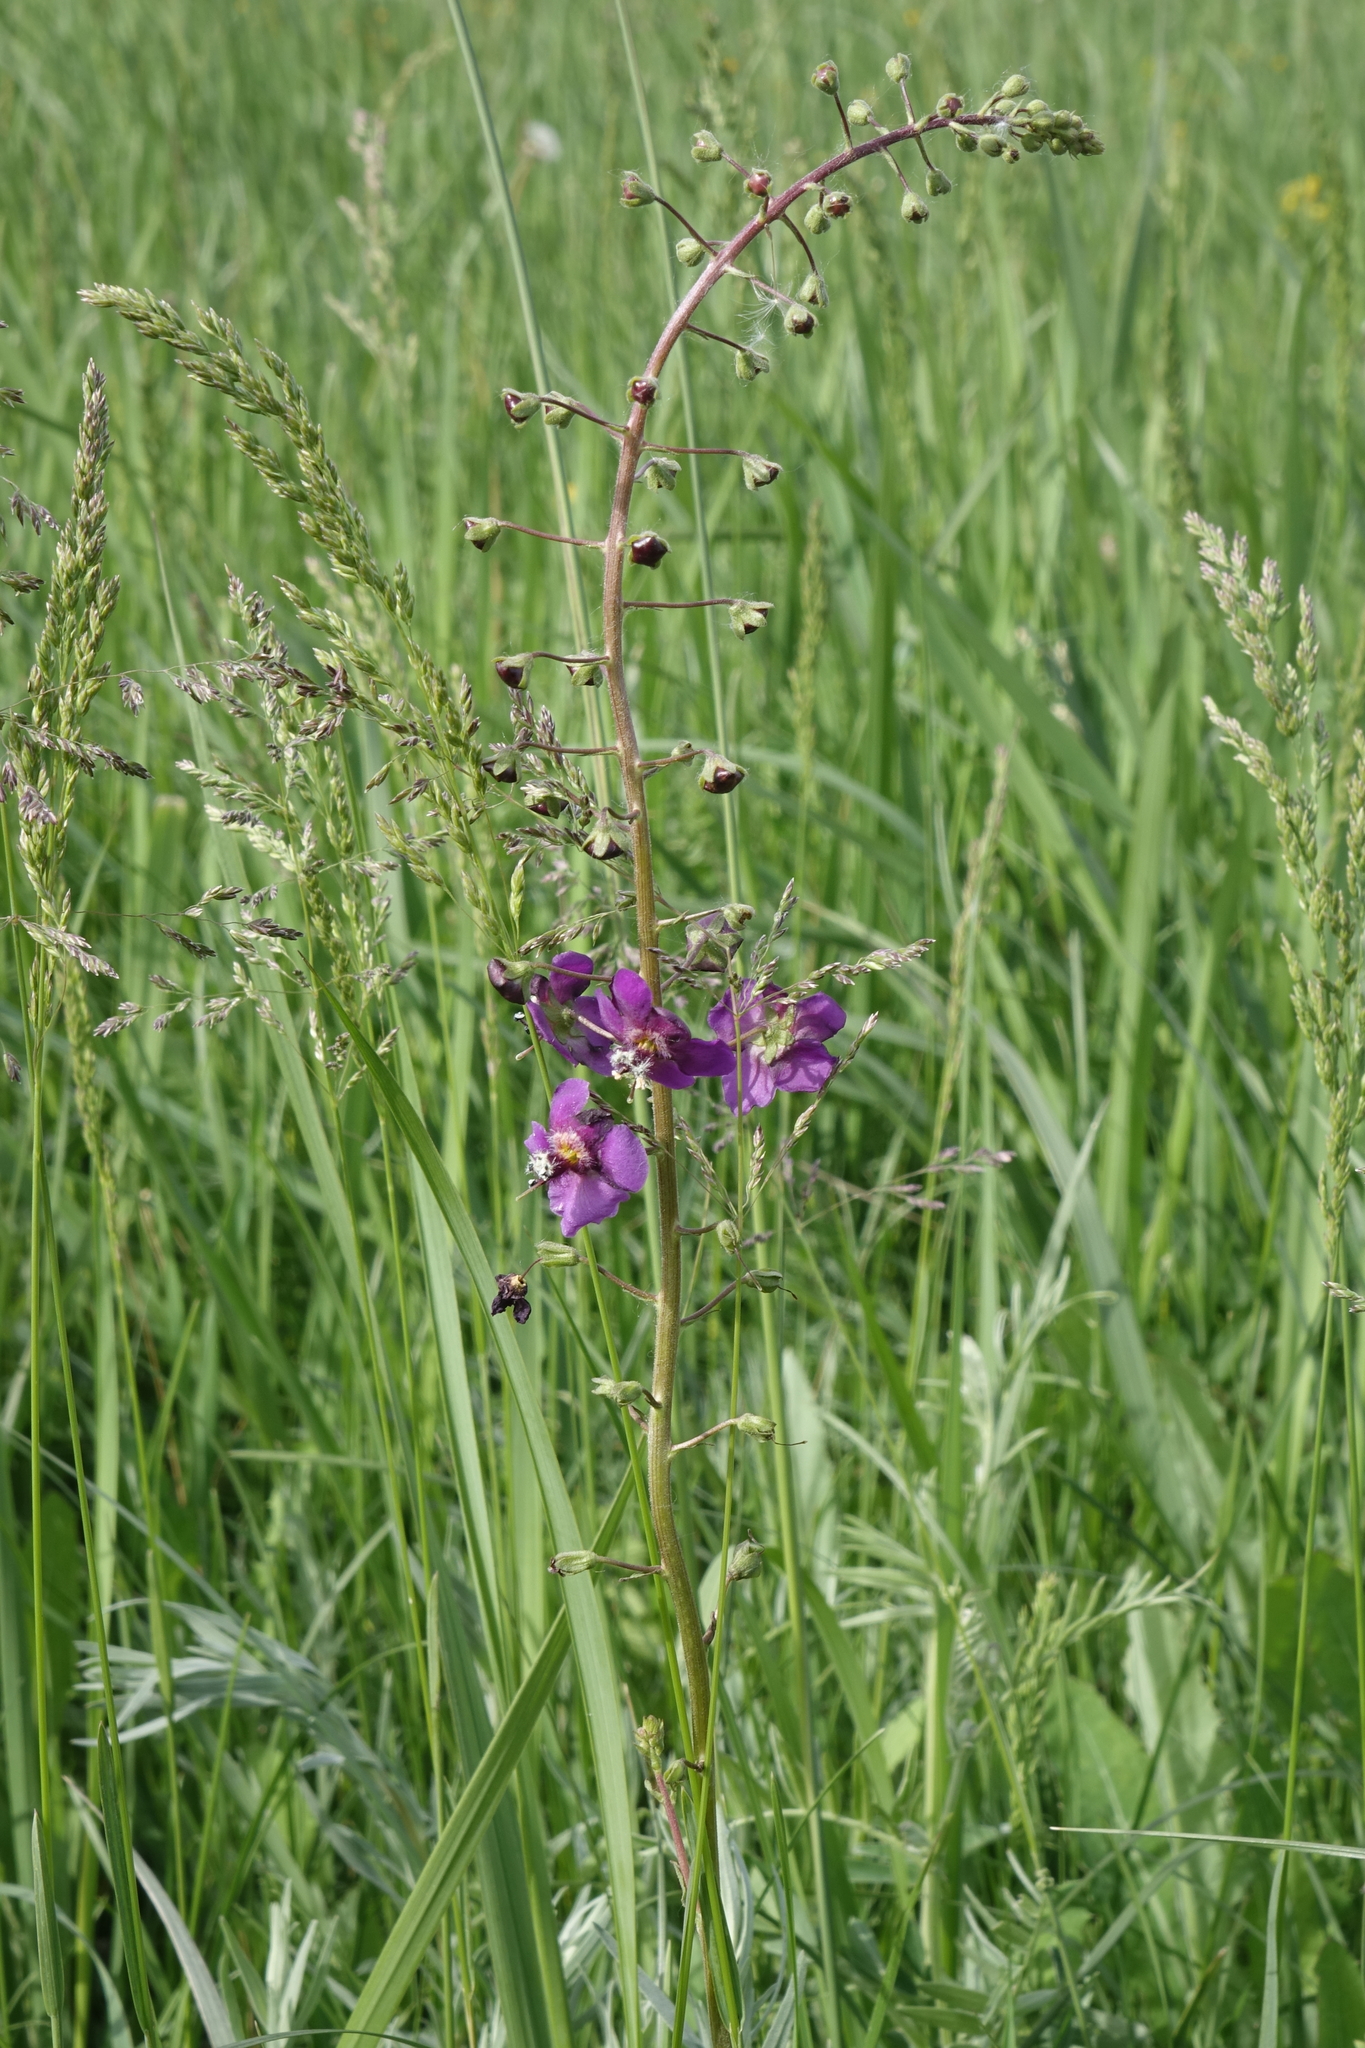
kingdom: Plantae
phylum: Tracheophyta
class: Magnoliopsida
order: Lamiales
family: Scrophulariaceae
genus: Verbascum
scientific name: Verbascum phoeniceum
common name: Purple mullein
